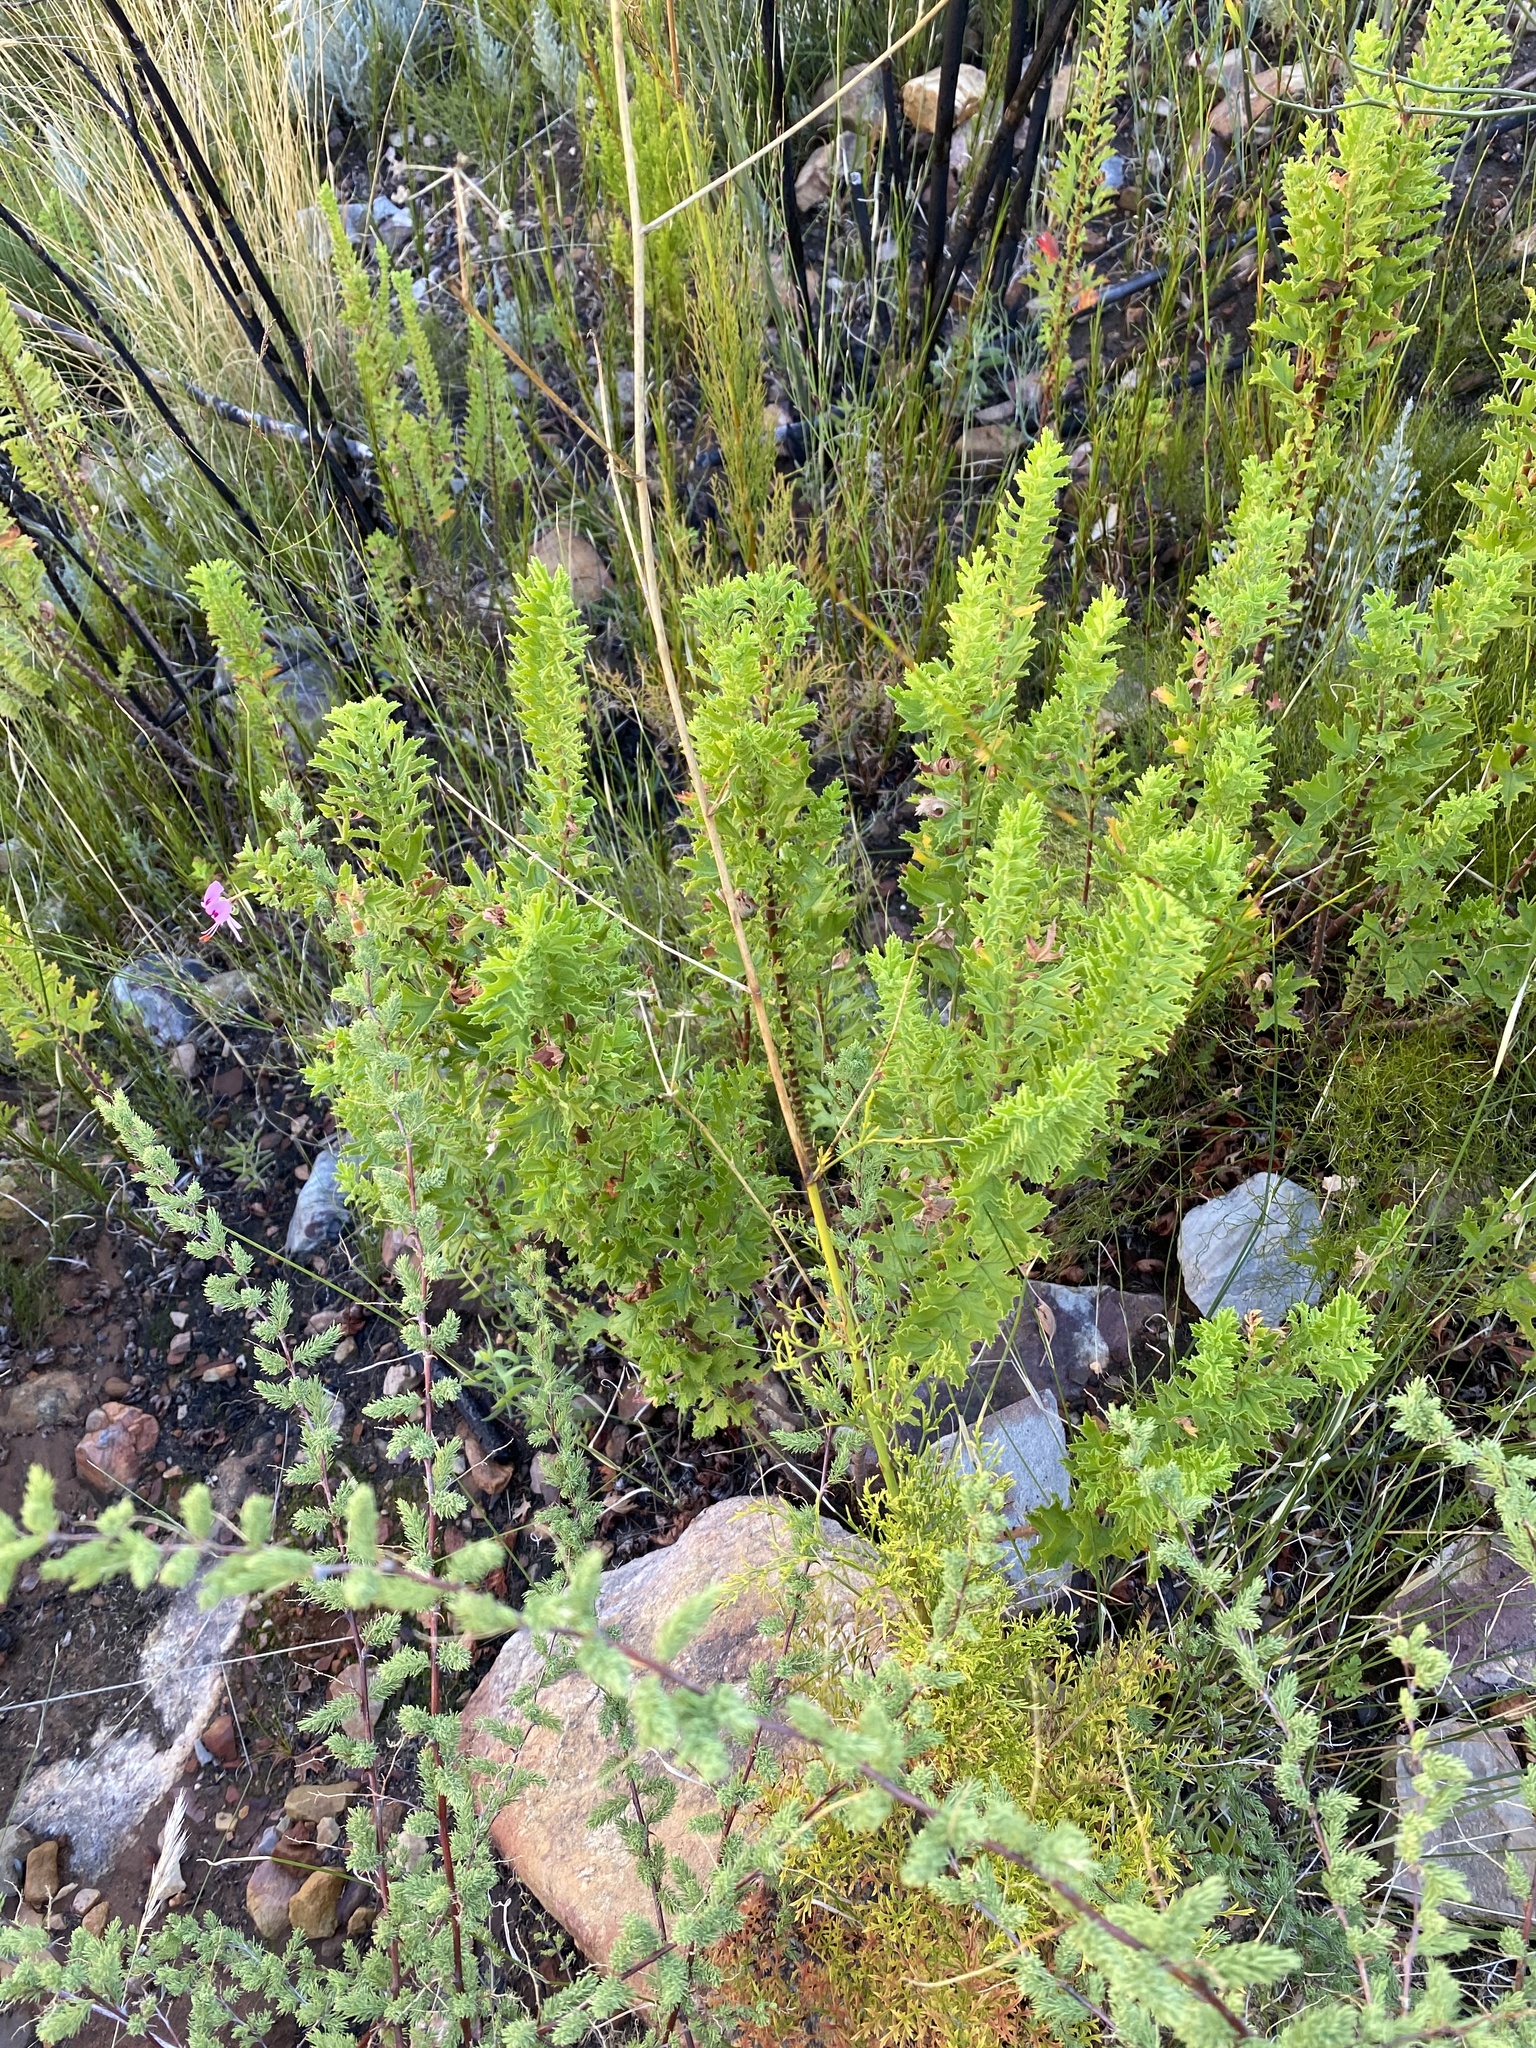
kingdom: Plantae
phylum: Tracheophyta
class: Magnoliopsida
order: Geraniales
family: Geraniaceae
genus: Pelargonium
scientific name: Pelargonium hermaniifolium
